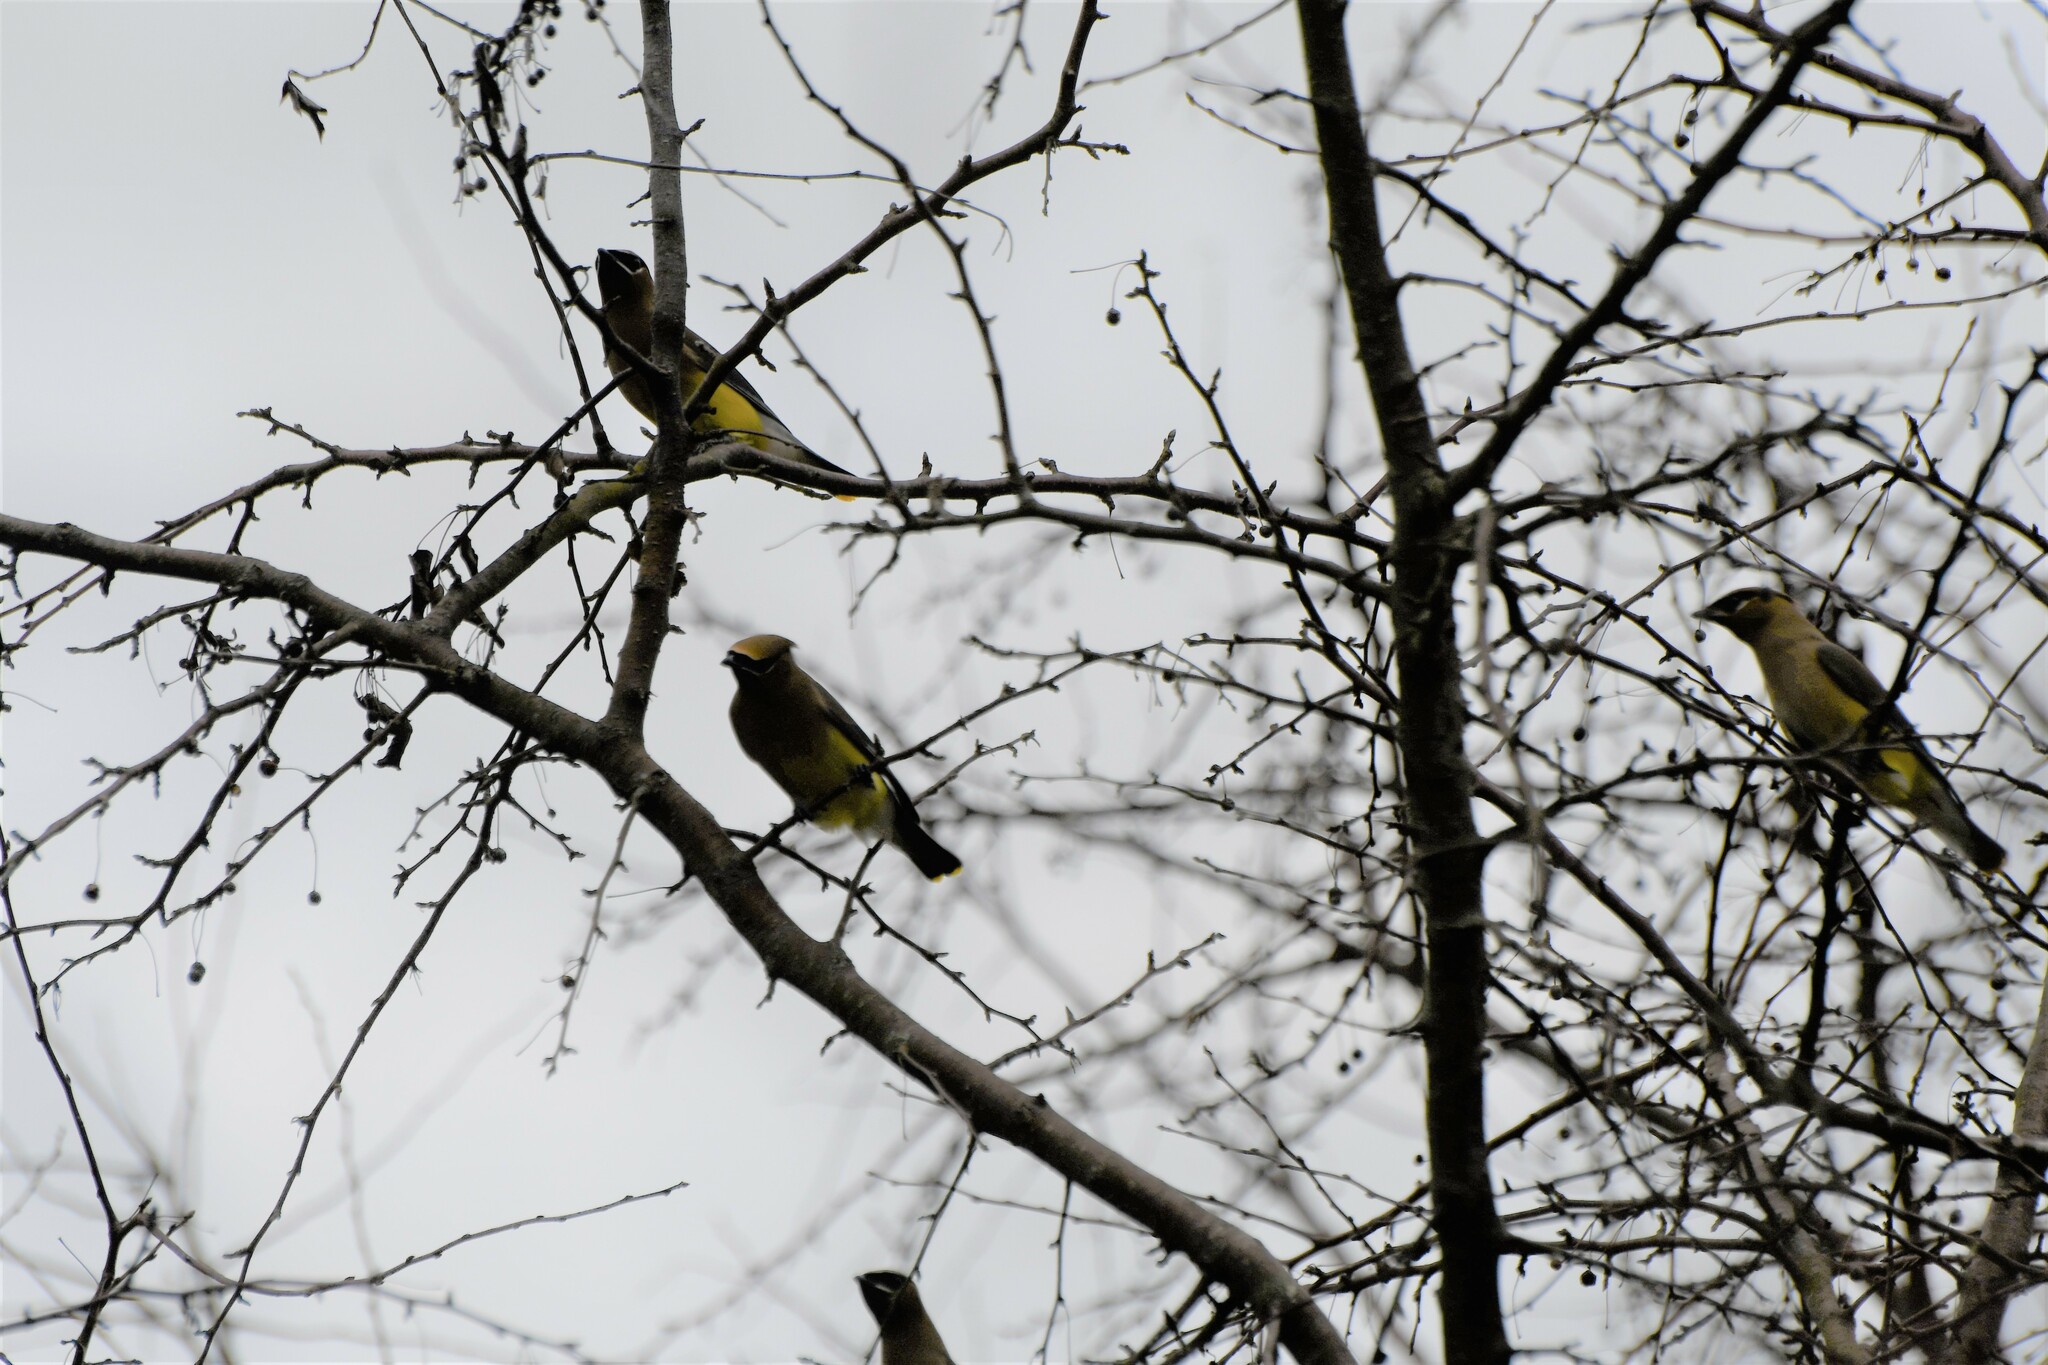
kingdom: Animalia
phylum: Chordata
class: Aves
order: Passeriformes
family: Bombycillidae
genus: Bombycilla
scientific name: Bombycilla cedrorum
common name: Cedar waxwing
